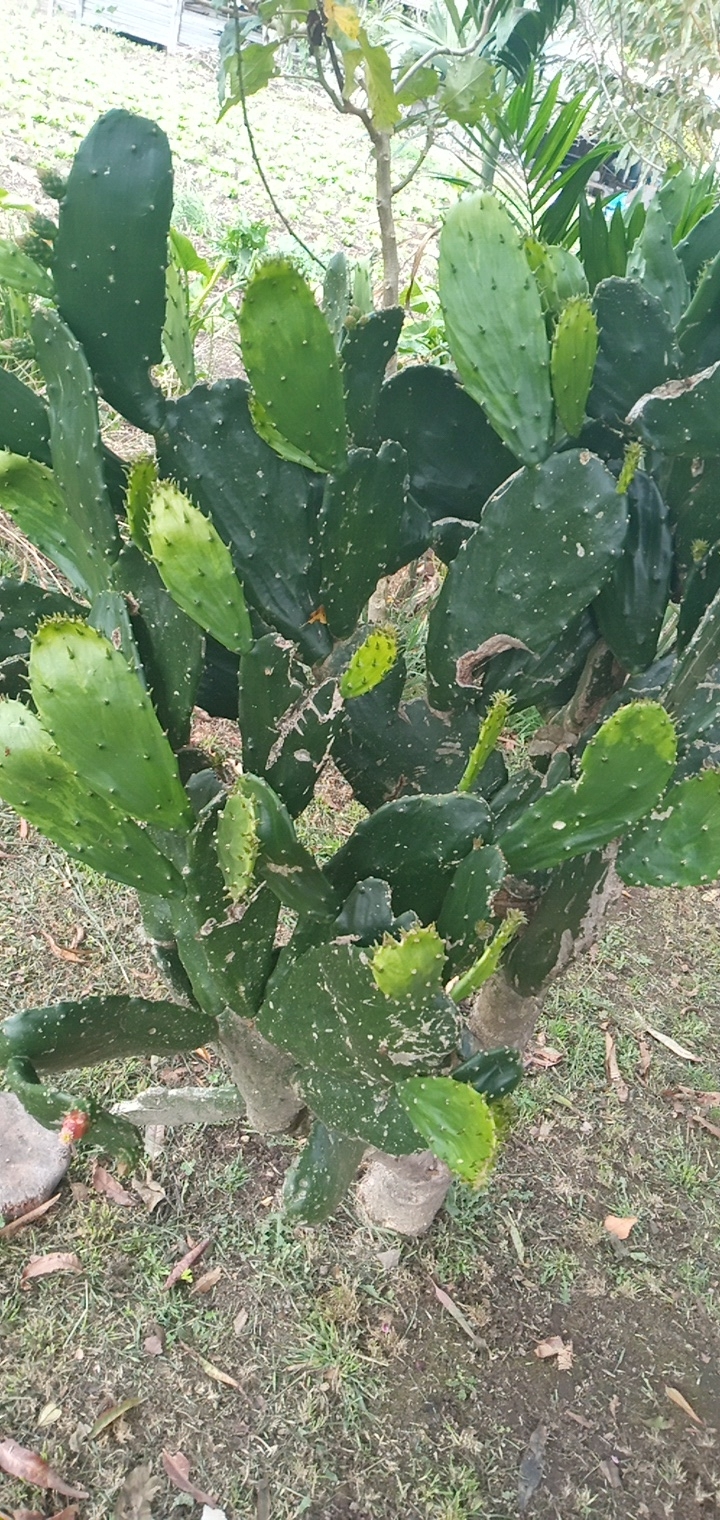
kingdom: Plantae
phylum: Tracheophyta
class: Magnoliopsida
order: Caryophyllales
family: Cactaceae
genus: Opuntia
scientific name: Opuntia cochenillifera
